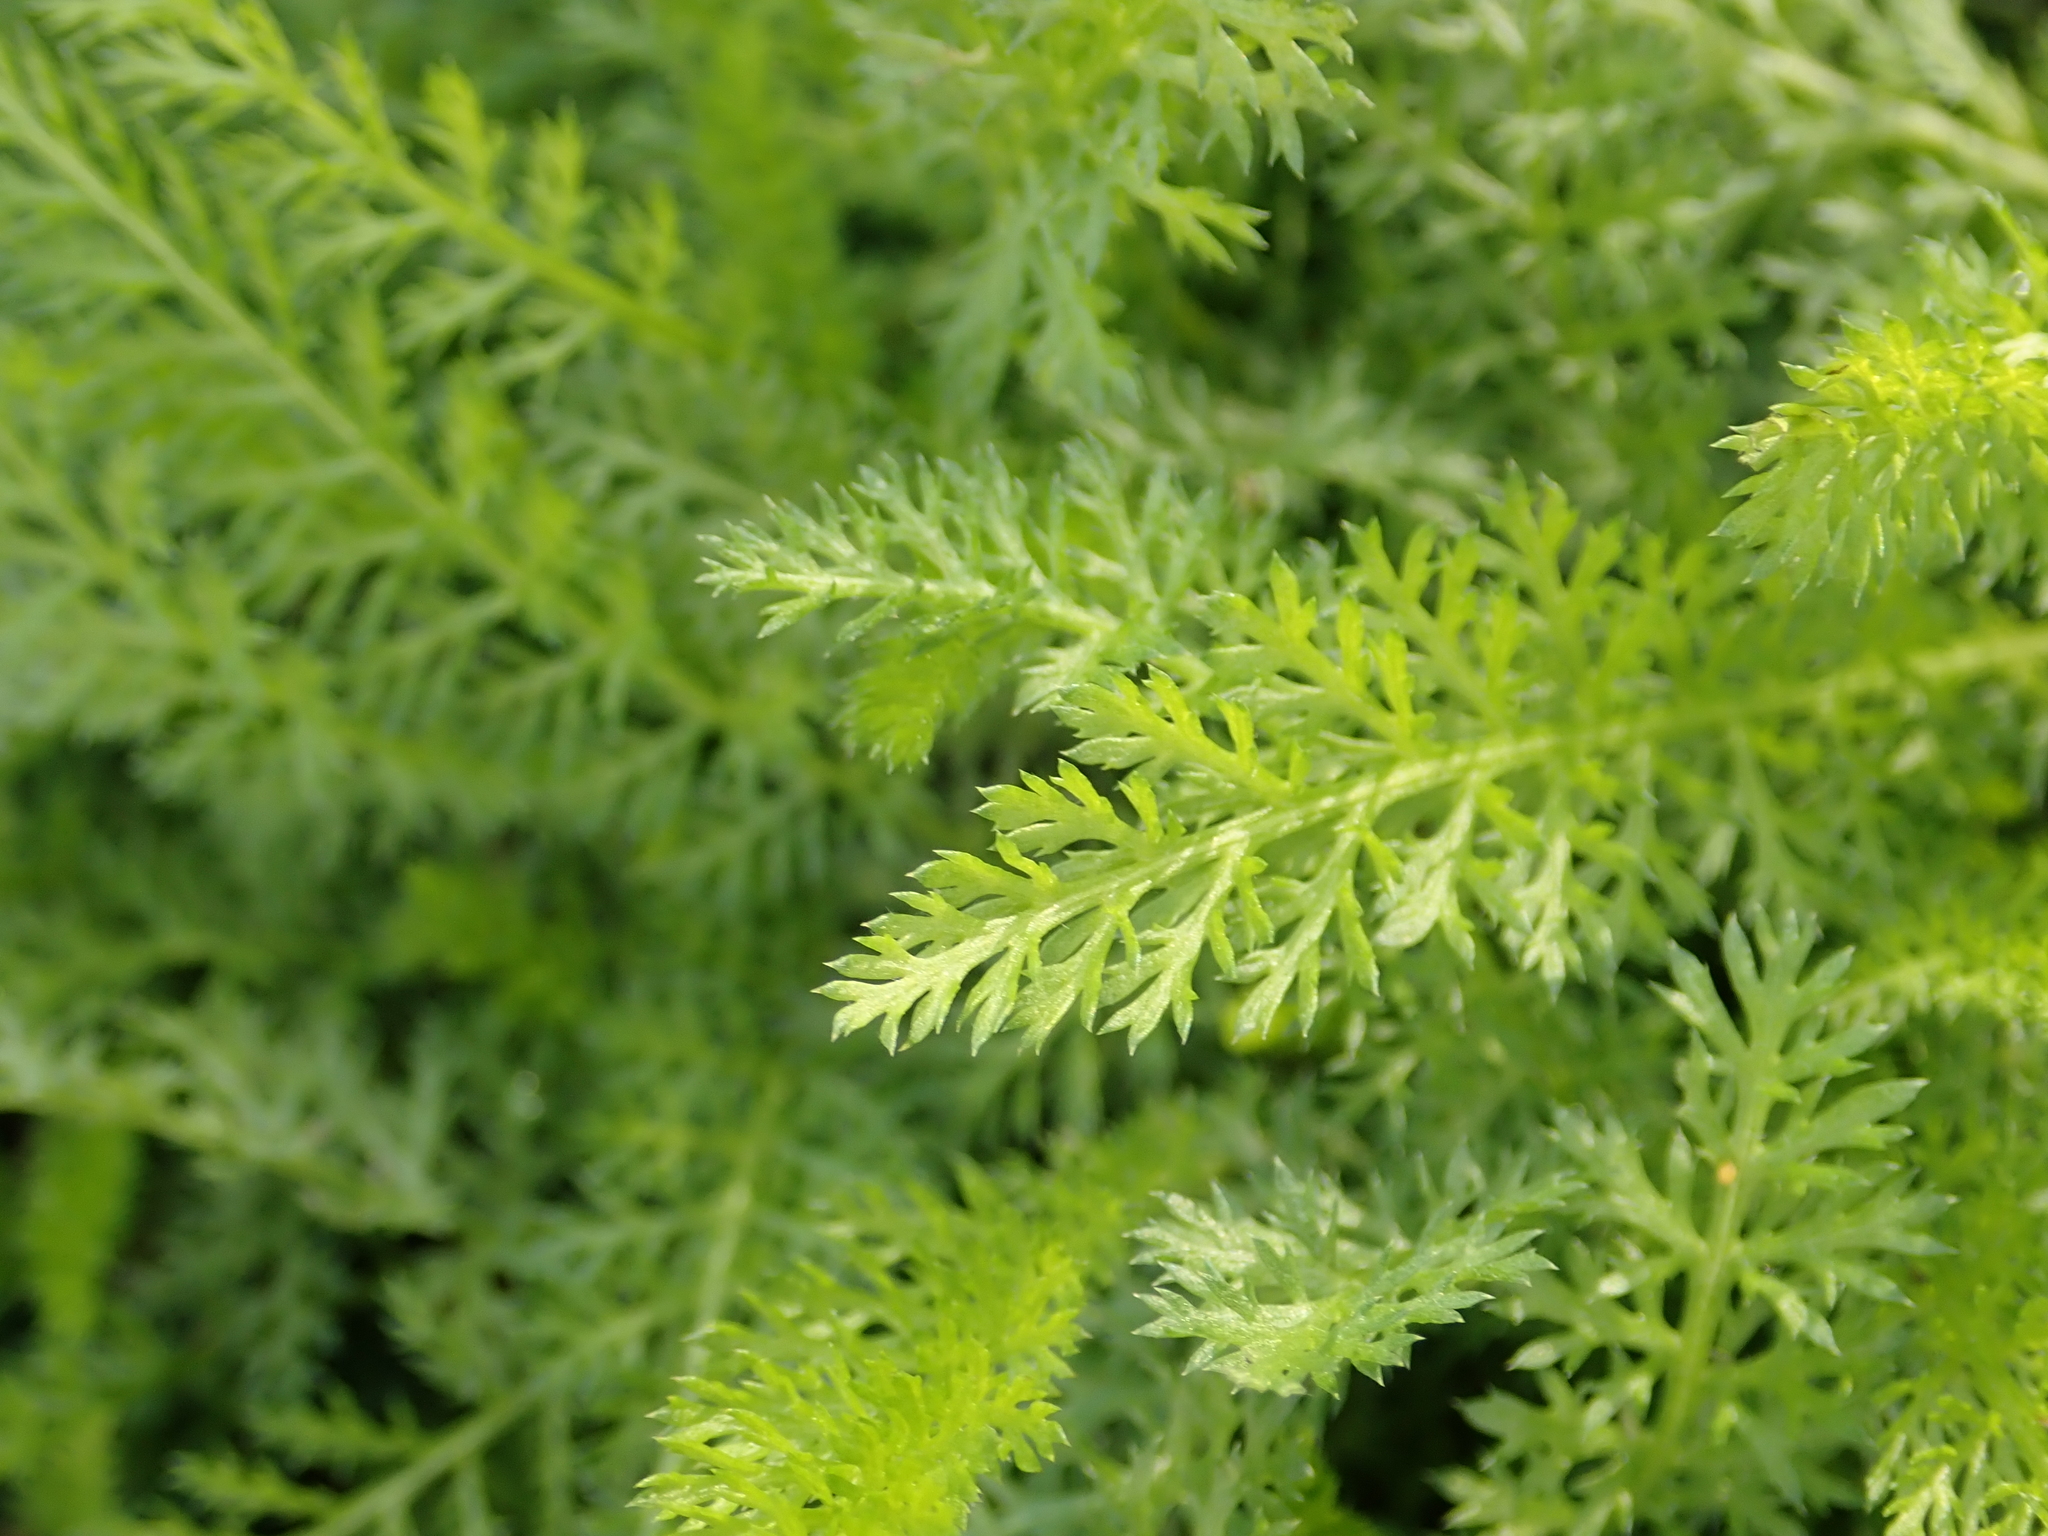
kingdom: Plantae
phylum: Tracheophyta
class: Magnoliopsida
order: Asterales
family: Asteraceae
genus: Achillea
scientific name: Achillea millefolium
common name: Yarrow
